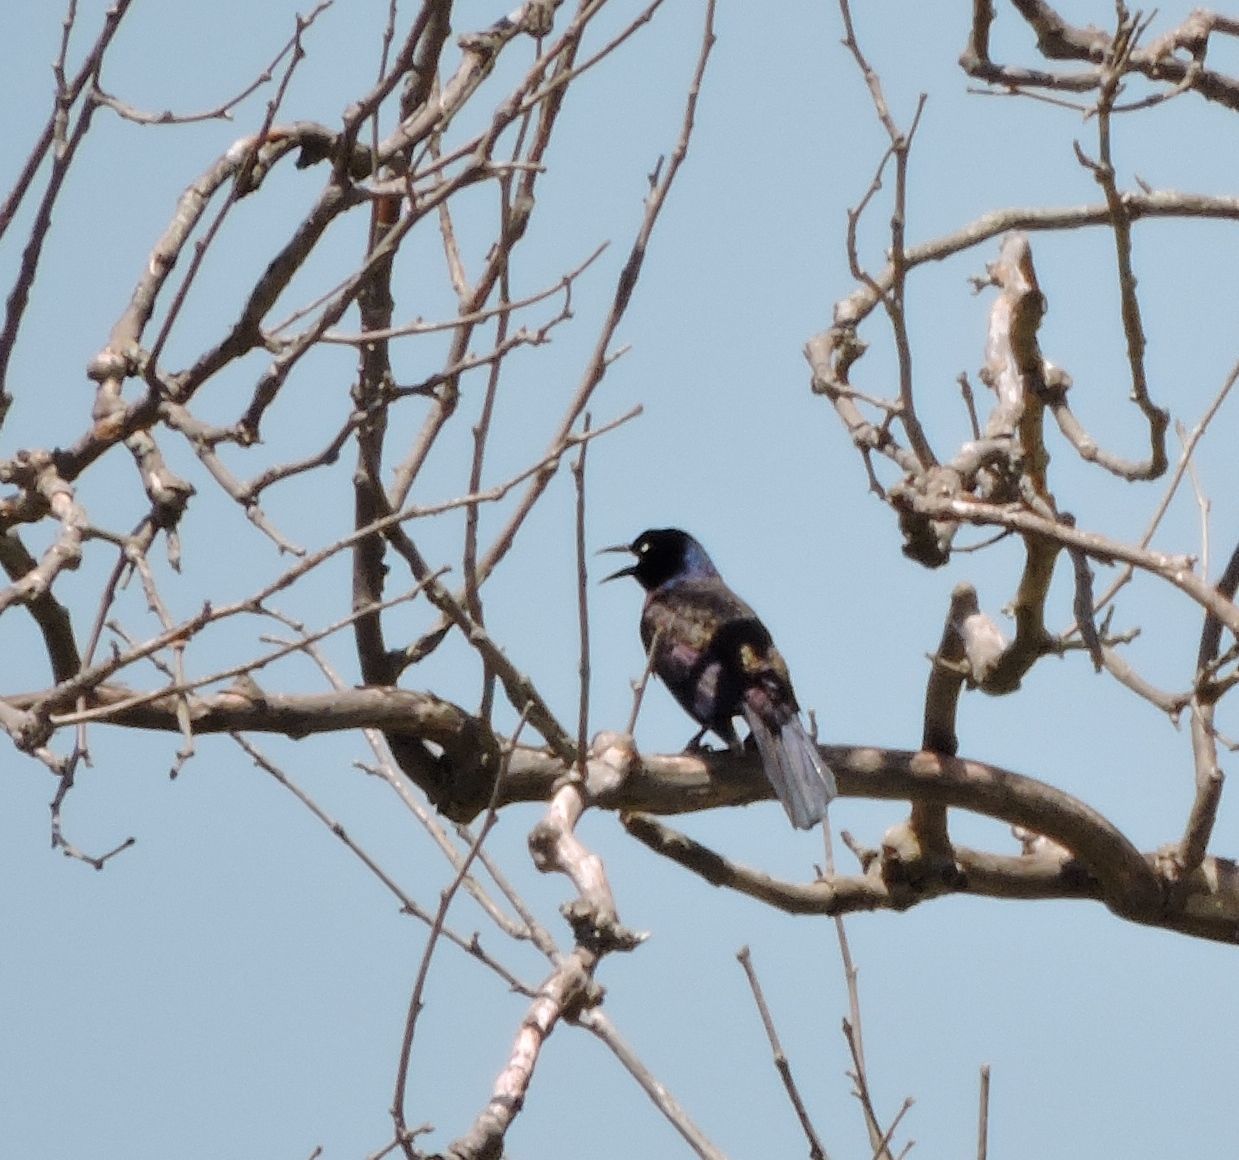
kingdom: Animalia
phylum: Chordata
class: Aves
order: Passeriformes
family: Icteridae
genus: Quiscalus
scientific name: Quiscalus quiscula
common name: Common grackle
